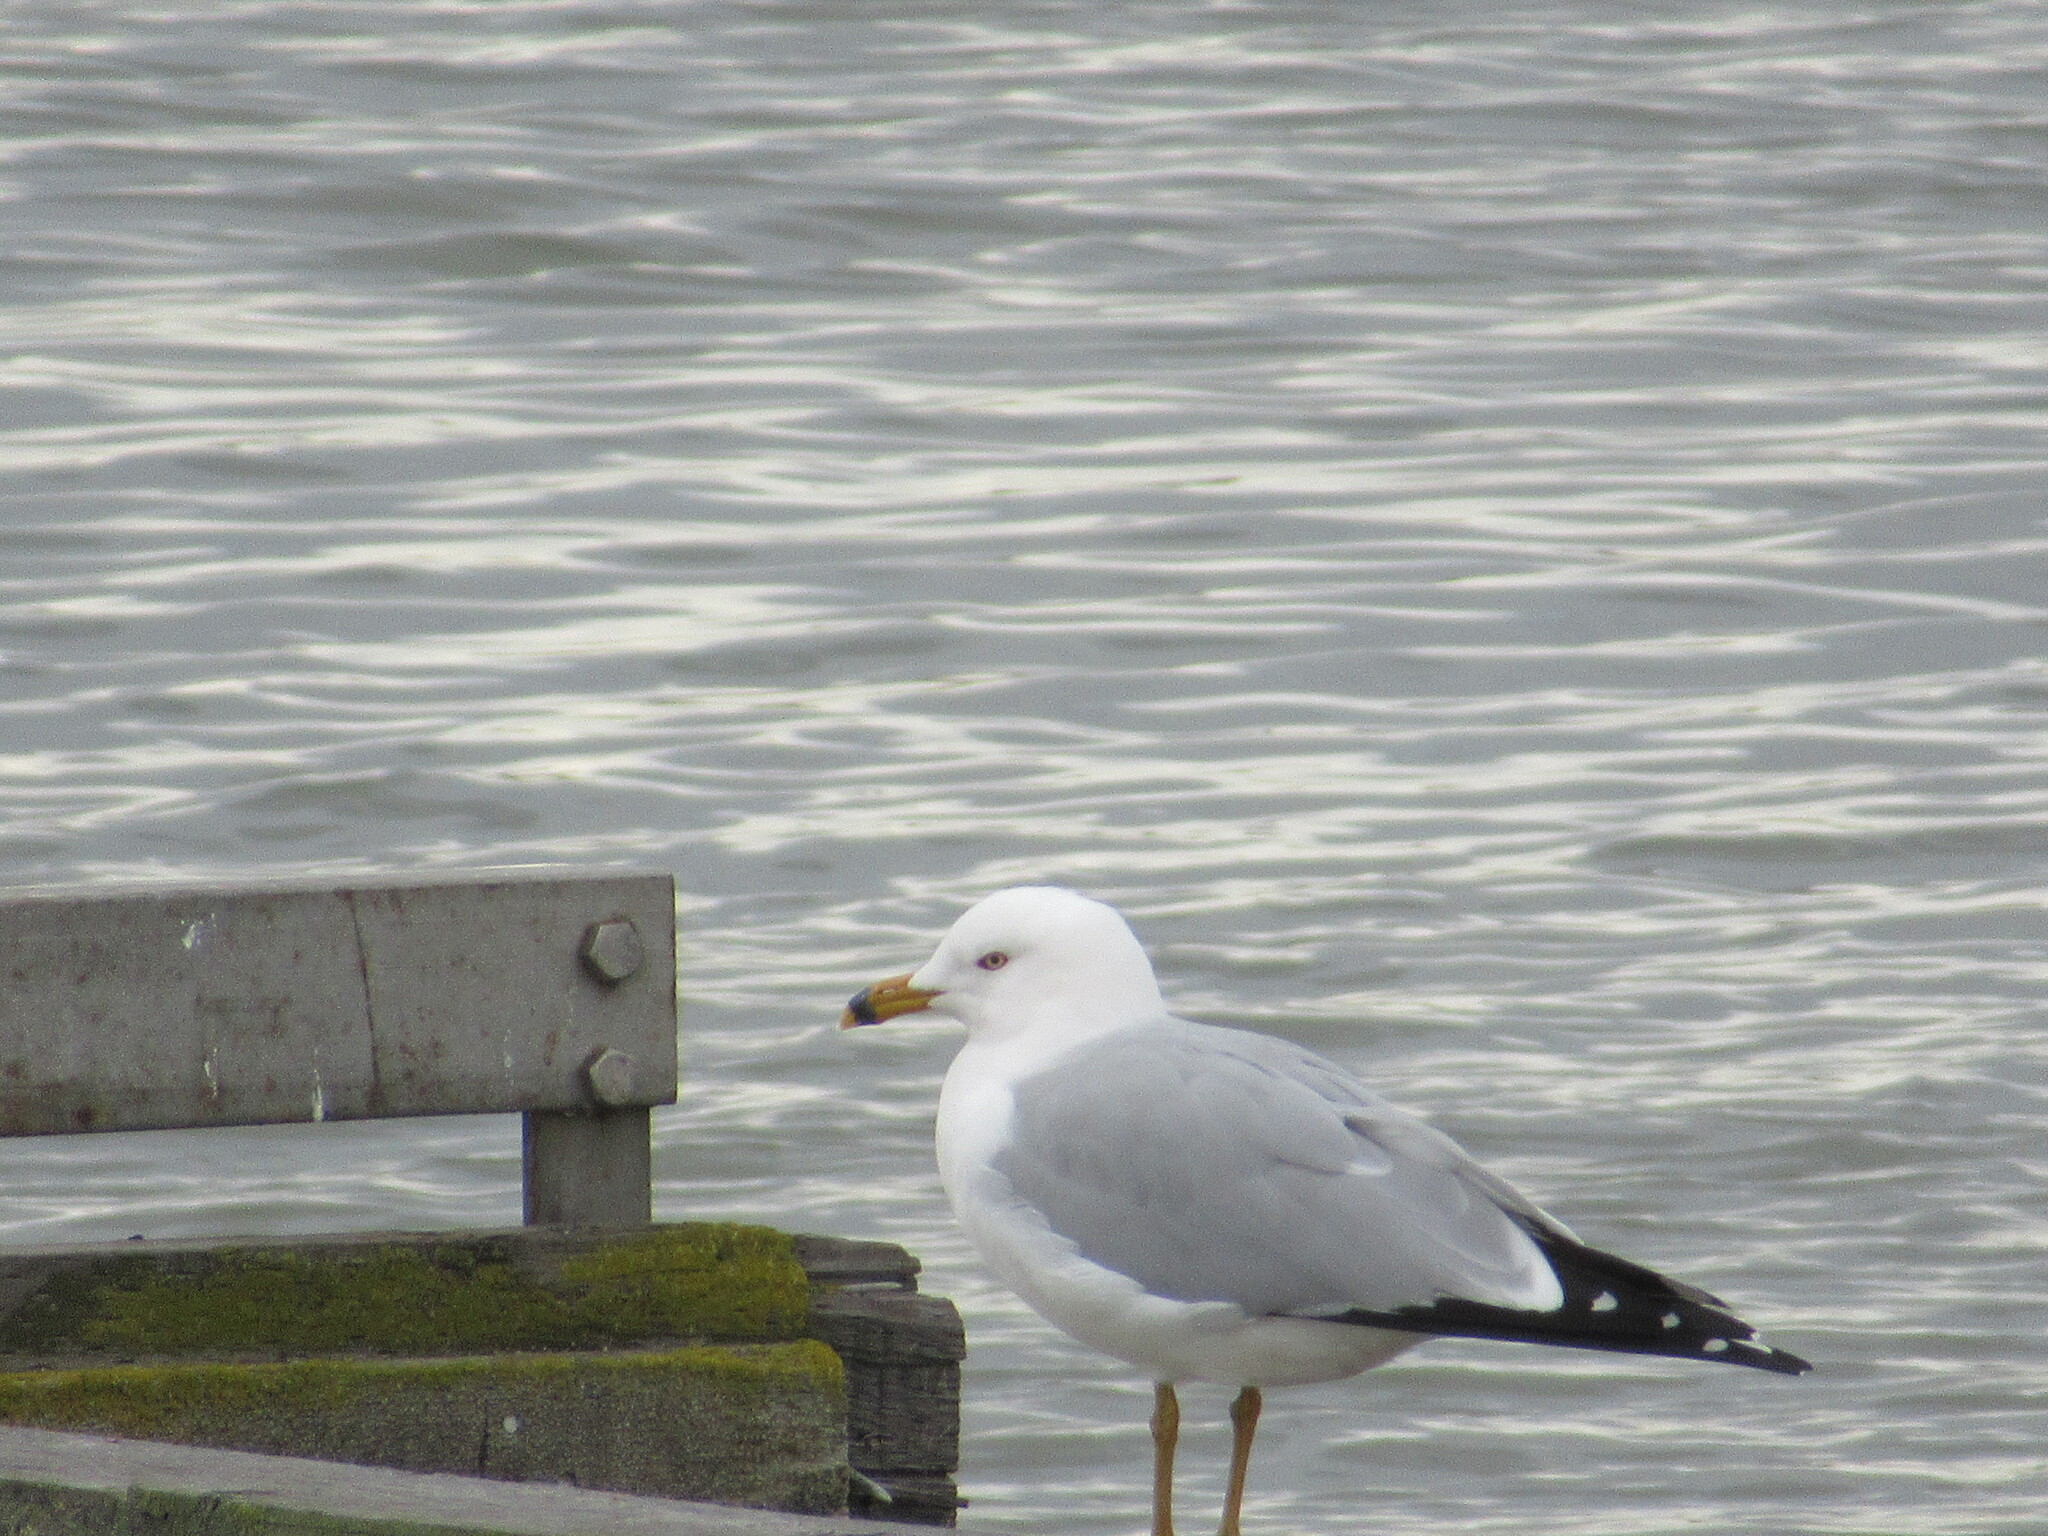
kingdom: Animalia
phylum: Chordata
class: Aves
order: Charadriiformes
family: Laridae
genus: Larus
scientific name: Larus delawarensis
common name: Ring-billed gull
